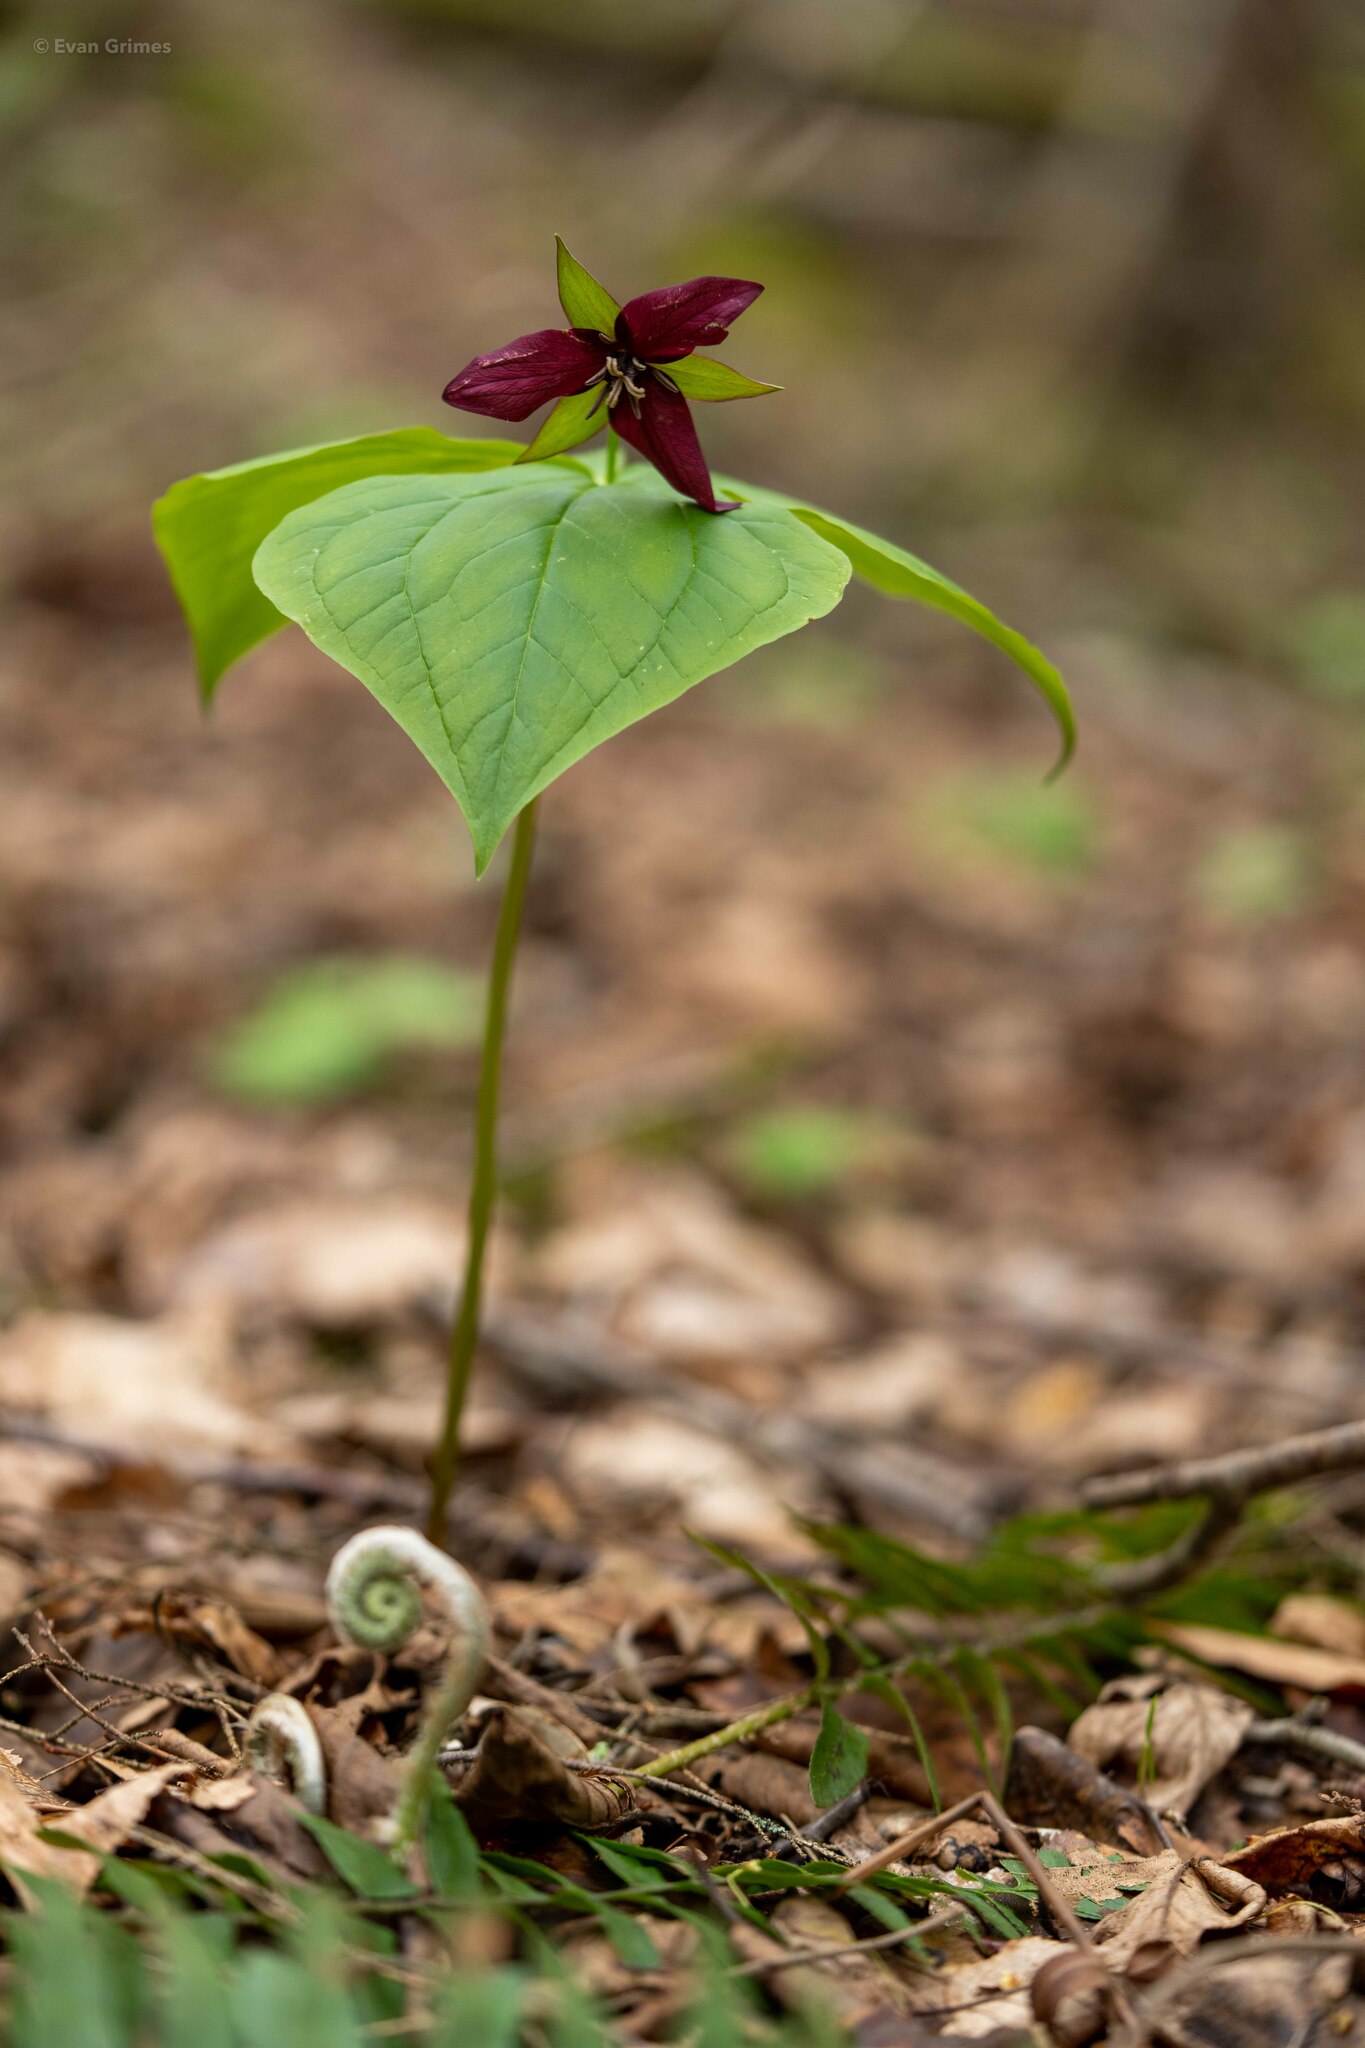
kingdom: Plantae
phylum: Tracheophyta
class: Liliopsida
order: Liliales
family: Melanthiaceae
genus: Trillium
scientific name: Trillium erectum
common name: Purple trillium
